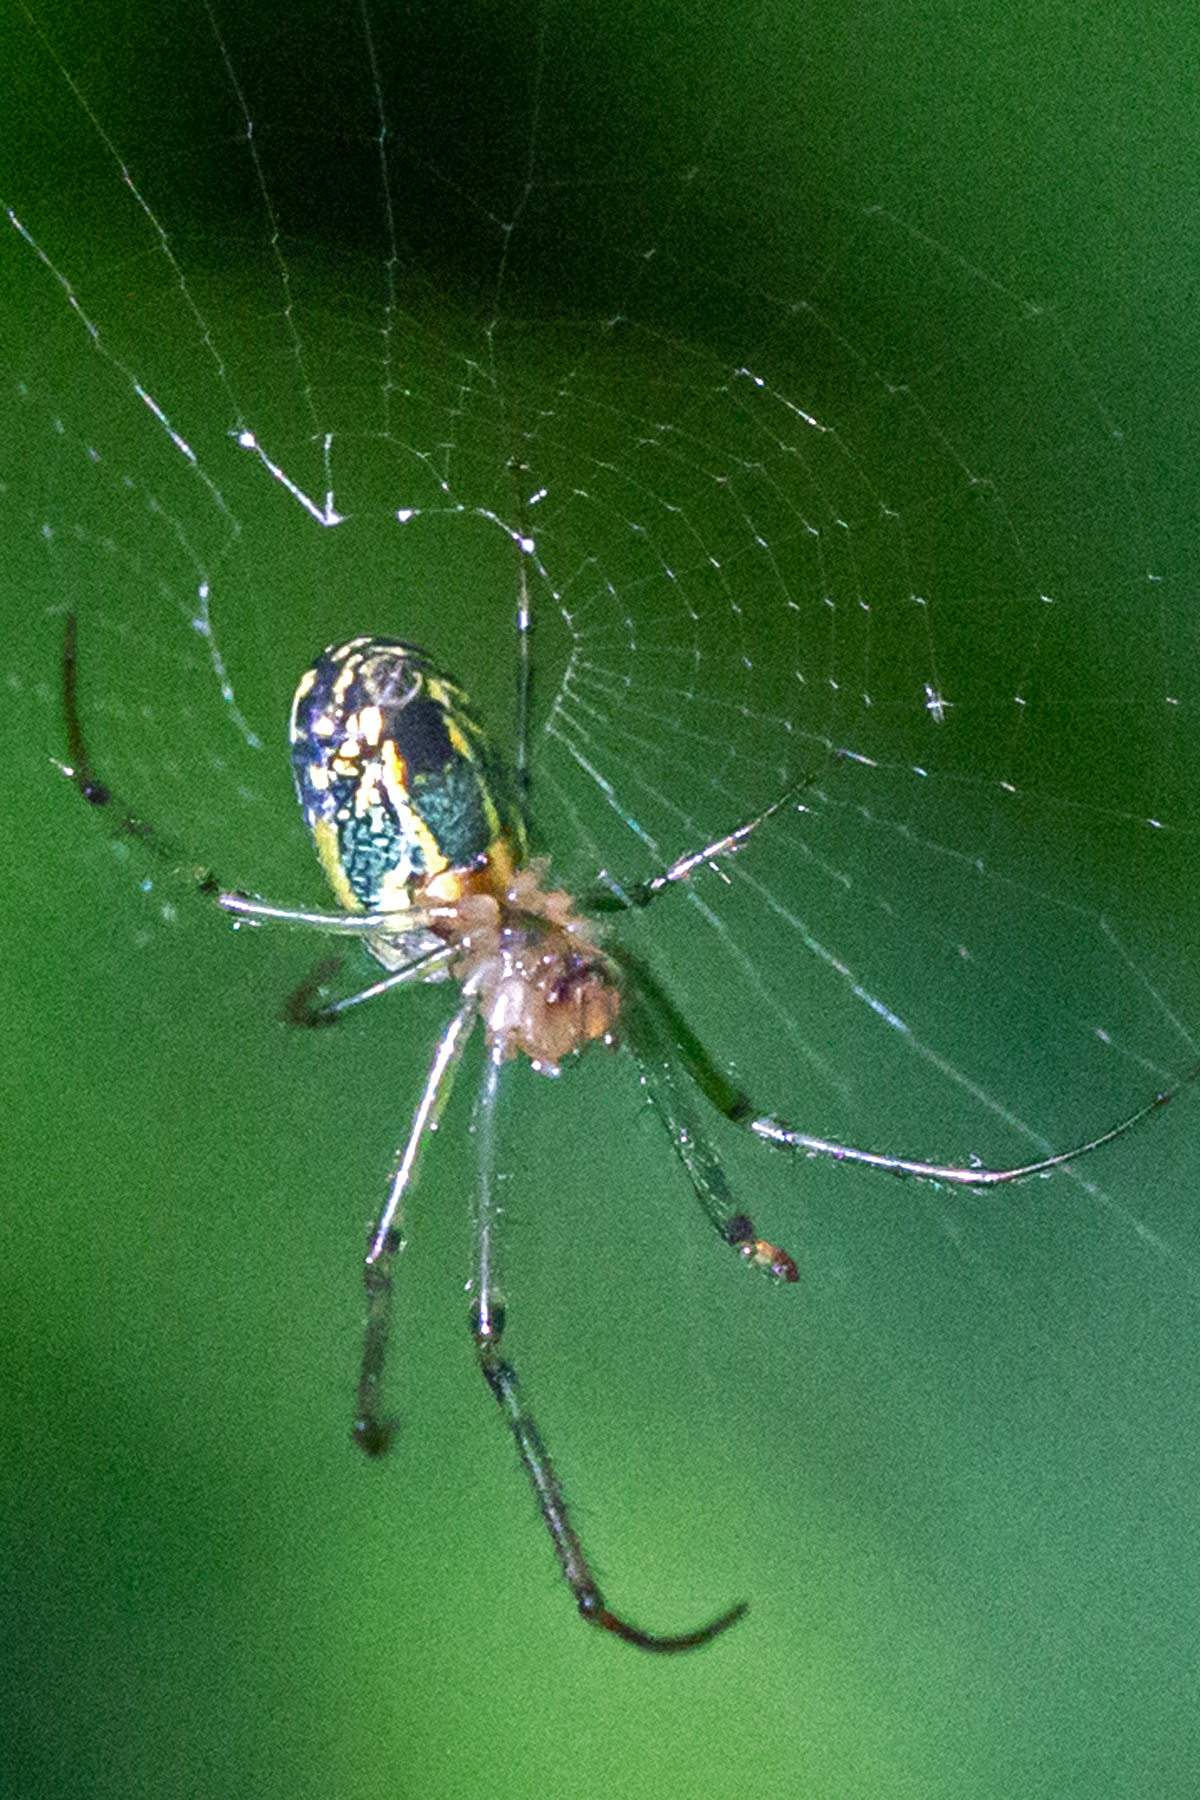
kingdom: Animalia
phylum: Arthropoda
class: Arachnida
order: Araneae
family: Tetragnathidae
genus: Leucauge
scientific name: Leucauge venusta
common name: Longjawed orb weavers
